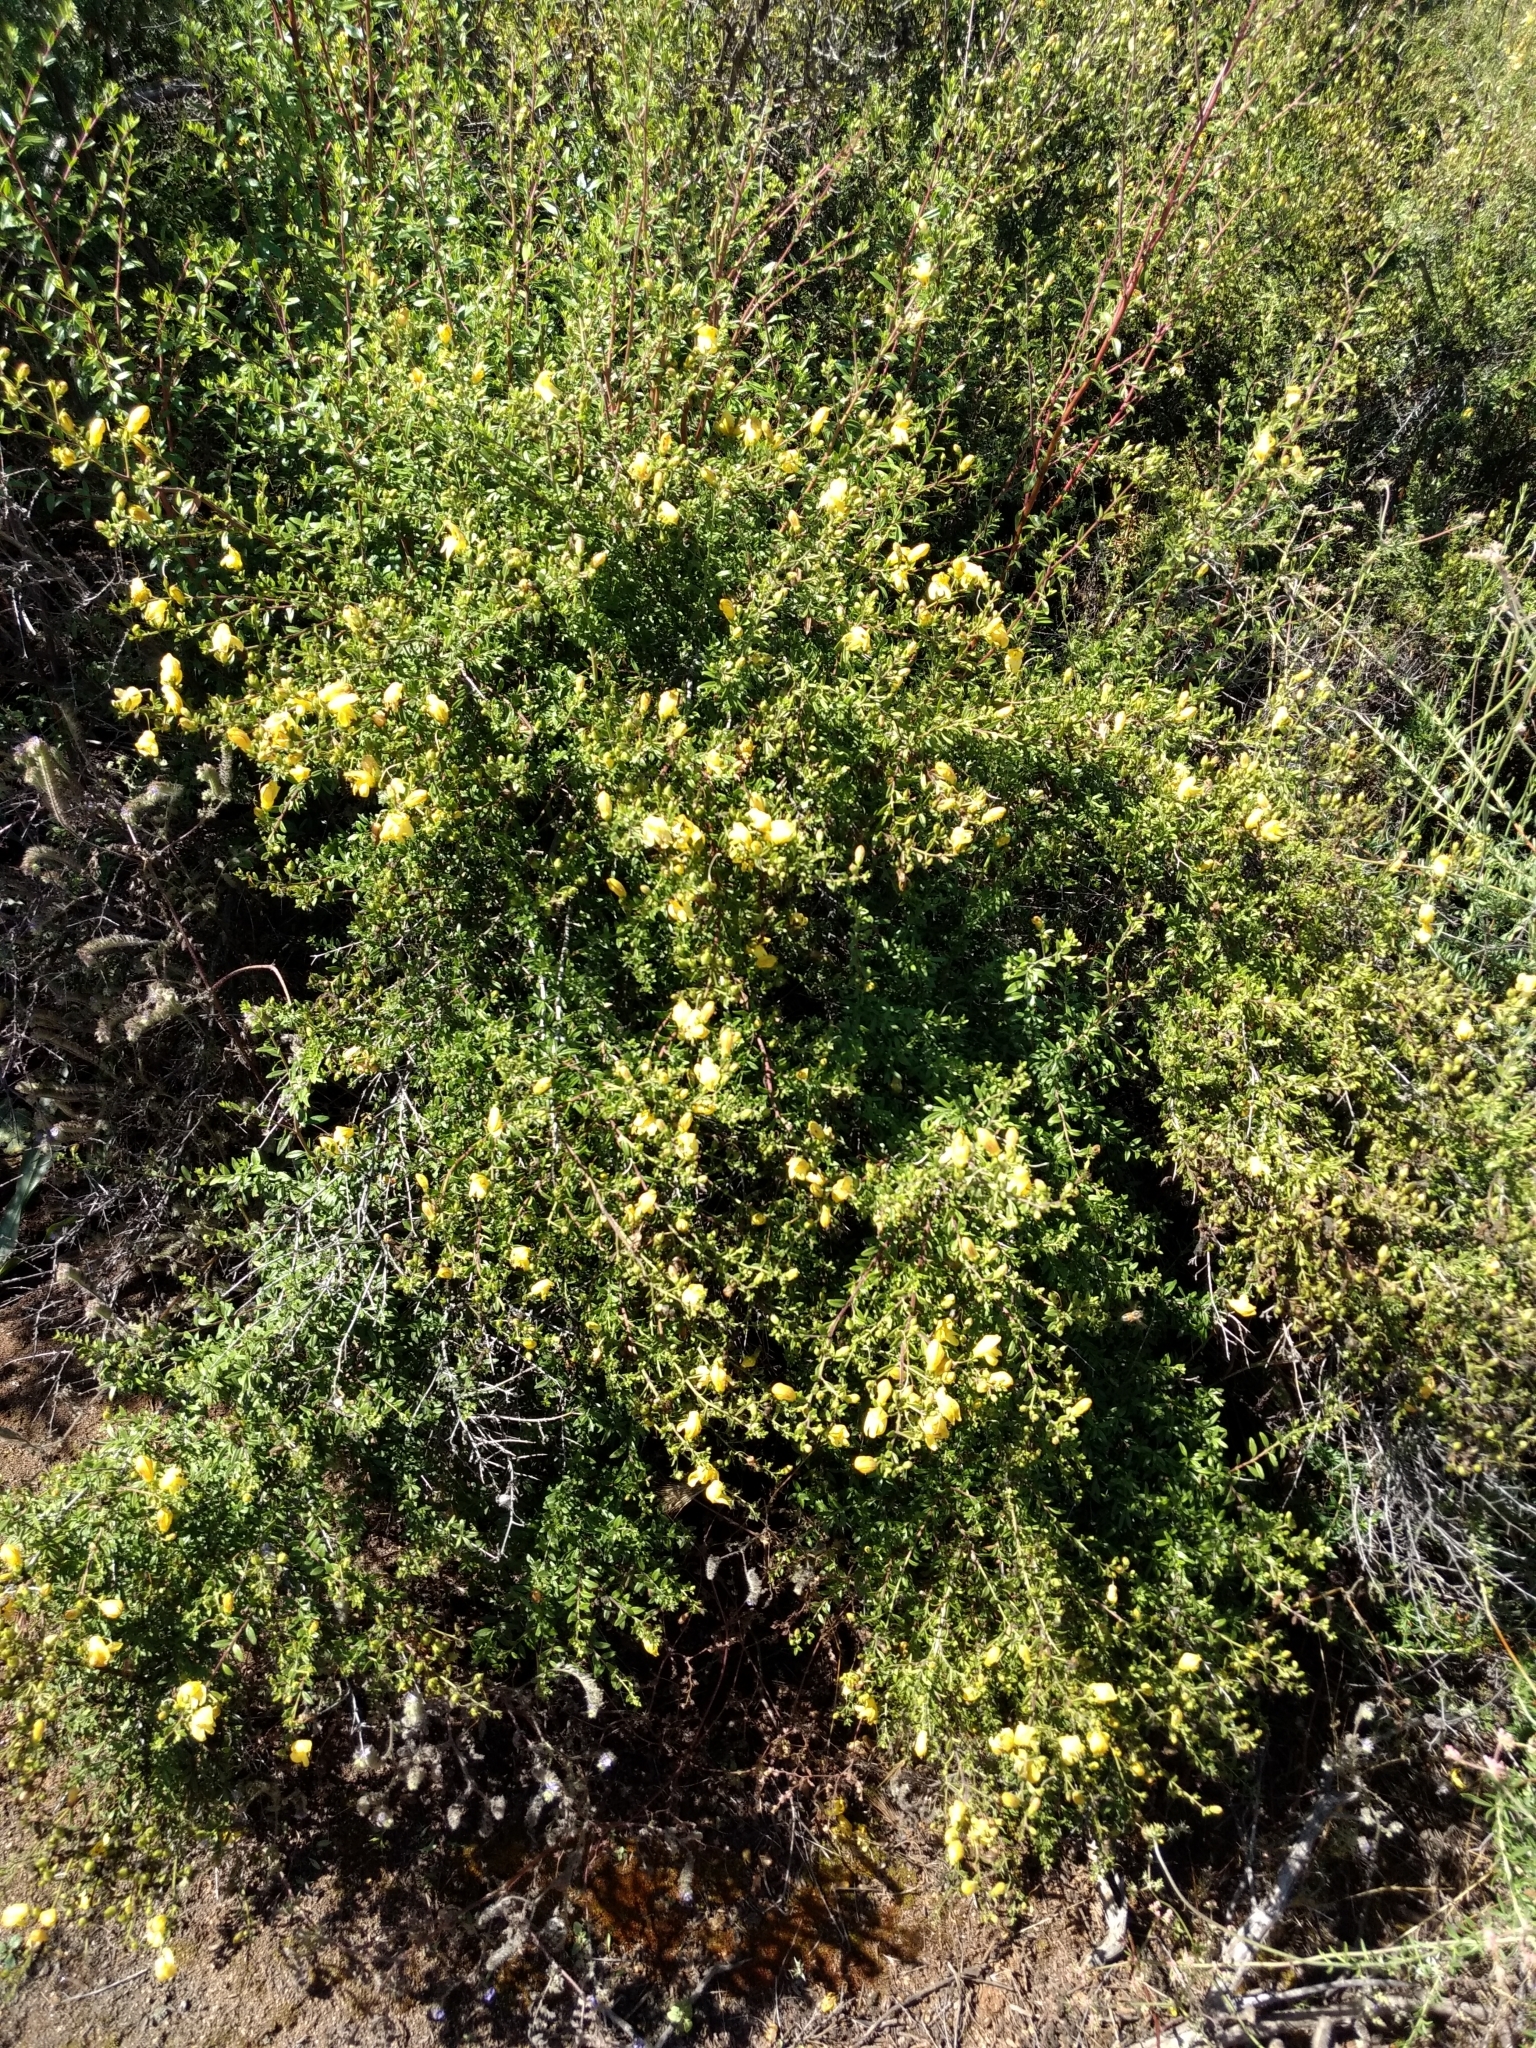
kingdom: Plantae
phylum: Tracheophyta
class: Magnoliopsida
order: Lamiales
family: Plantaginaceae
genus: Keckiella
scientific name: Keckiella antirrhinoides
